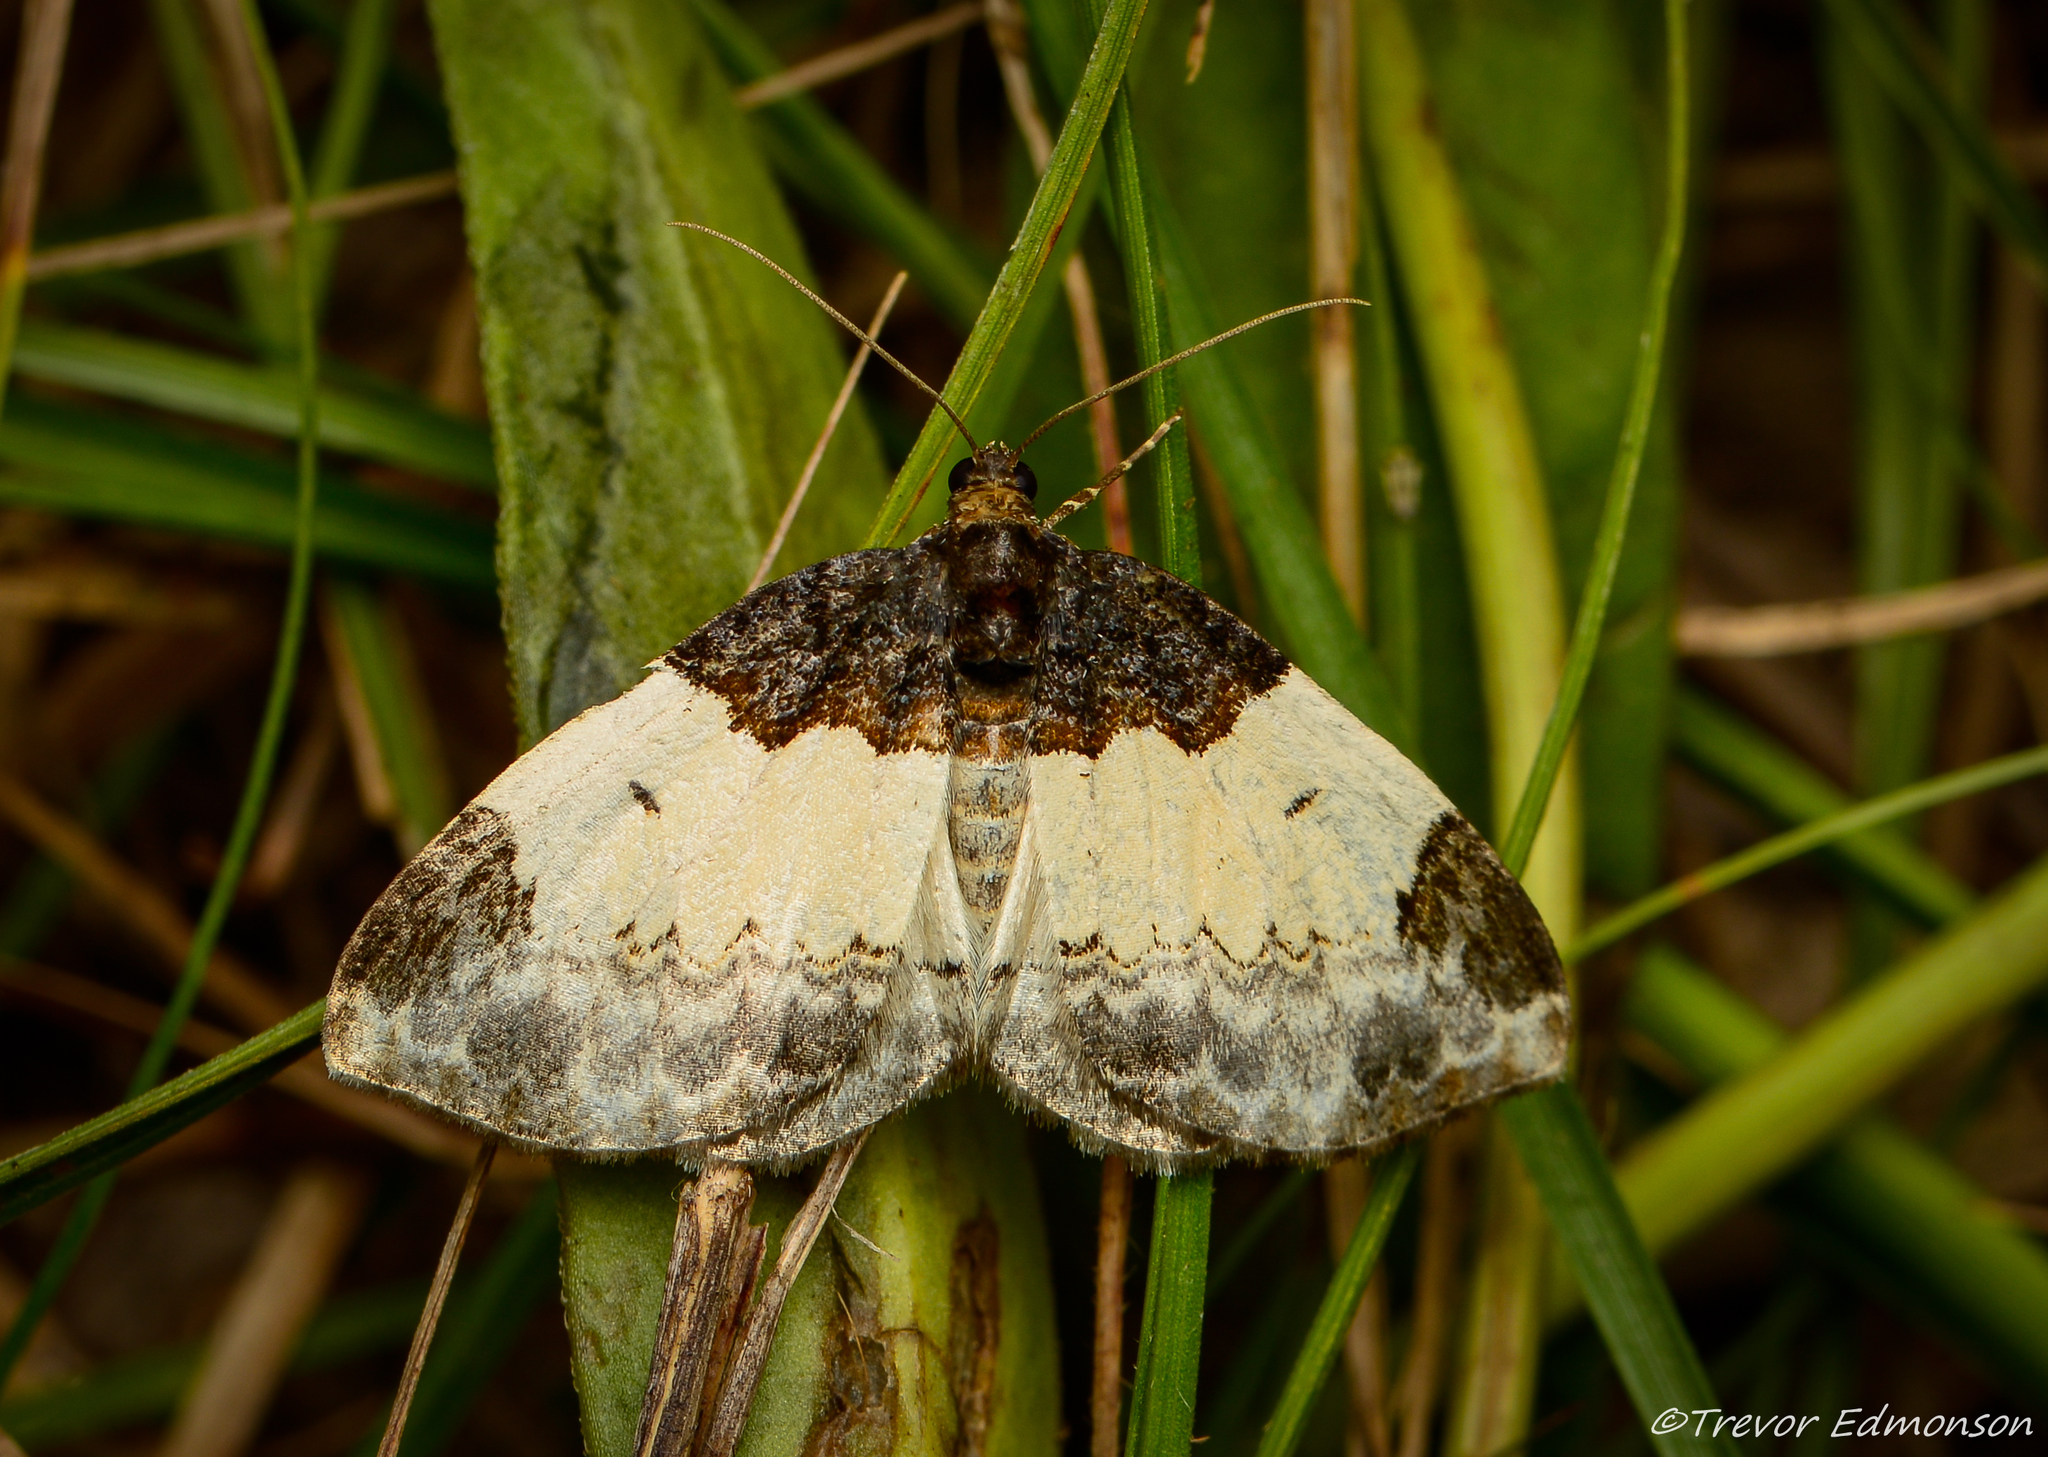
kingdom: Animalia
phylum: Arthropoda
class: Insecta
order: Lepidoptera
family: Geometridae
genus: Mesoleuca
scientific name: Mesoleuca ruficillata
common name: White-ribboned carpet moth
